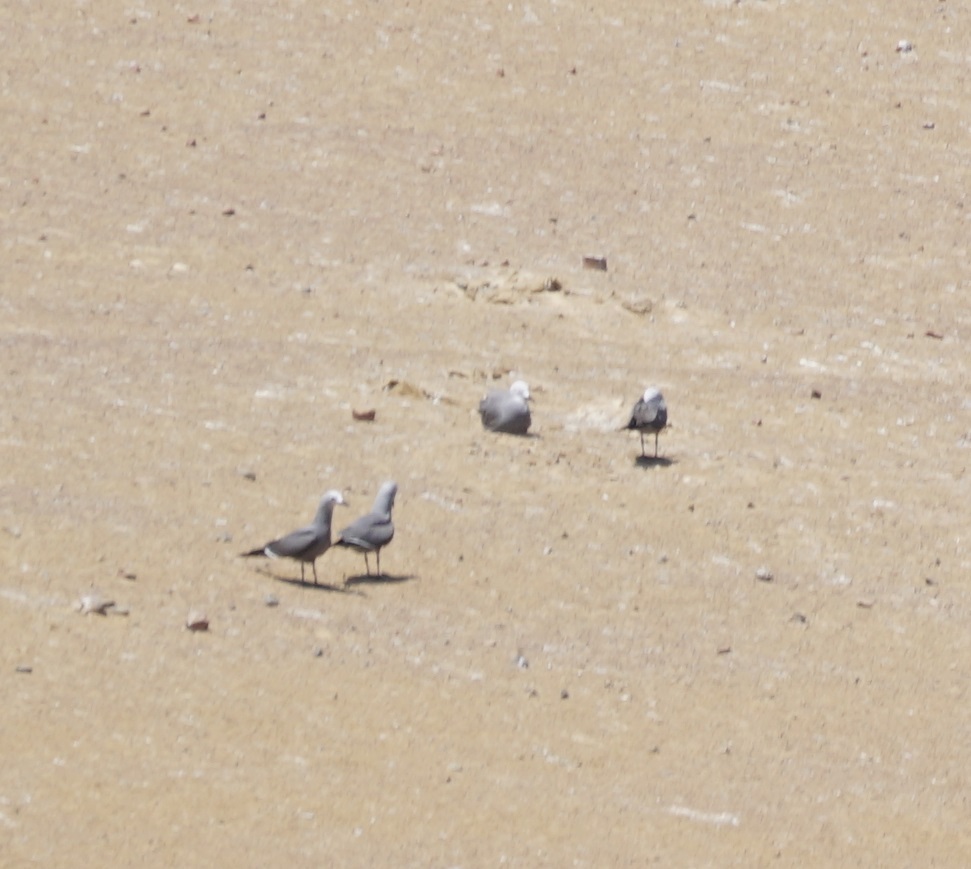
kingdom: Animalia
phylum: Chordata
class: Aves
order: Charadriiformes
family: Laridae
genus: Leucophaeus
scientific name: Leucophaeus modestus
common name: Gray gull
